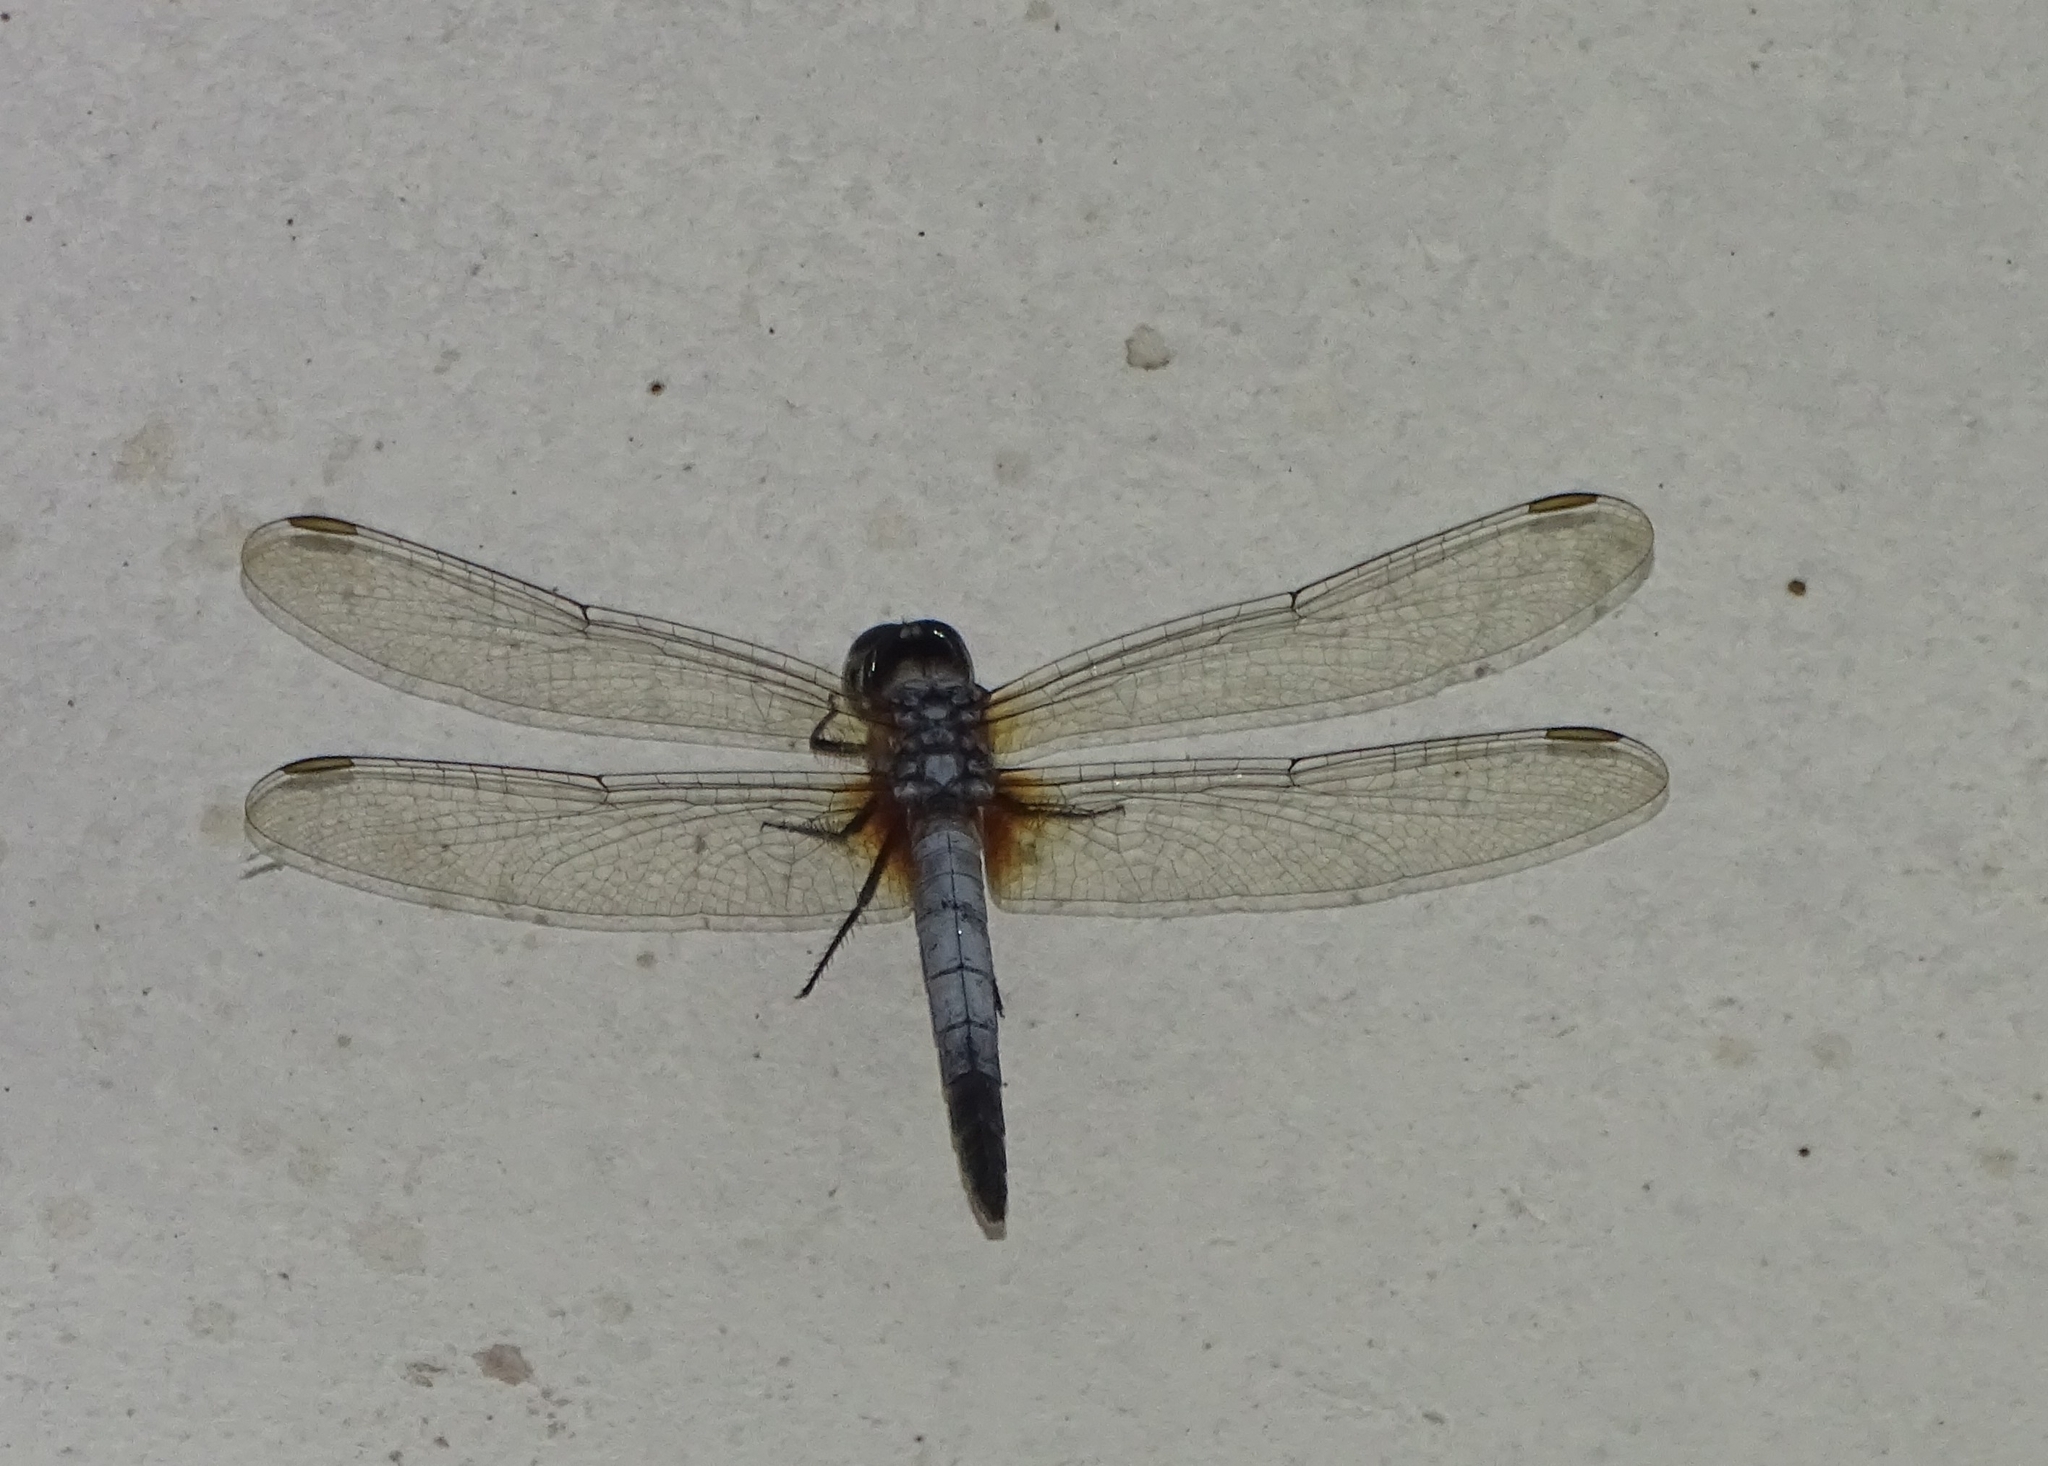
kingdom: Animalia
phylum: Arthropoda
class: Insecta
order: Odonata
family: Libellulidae
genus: Brachydiplax
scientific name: Brachydiplax chalybea
